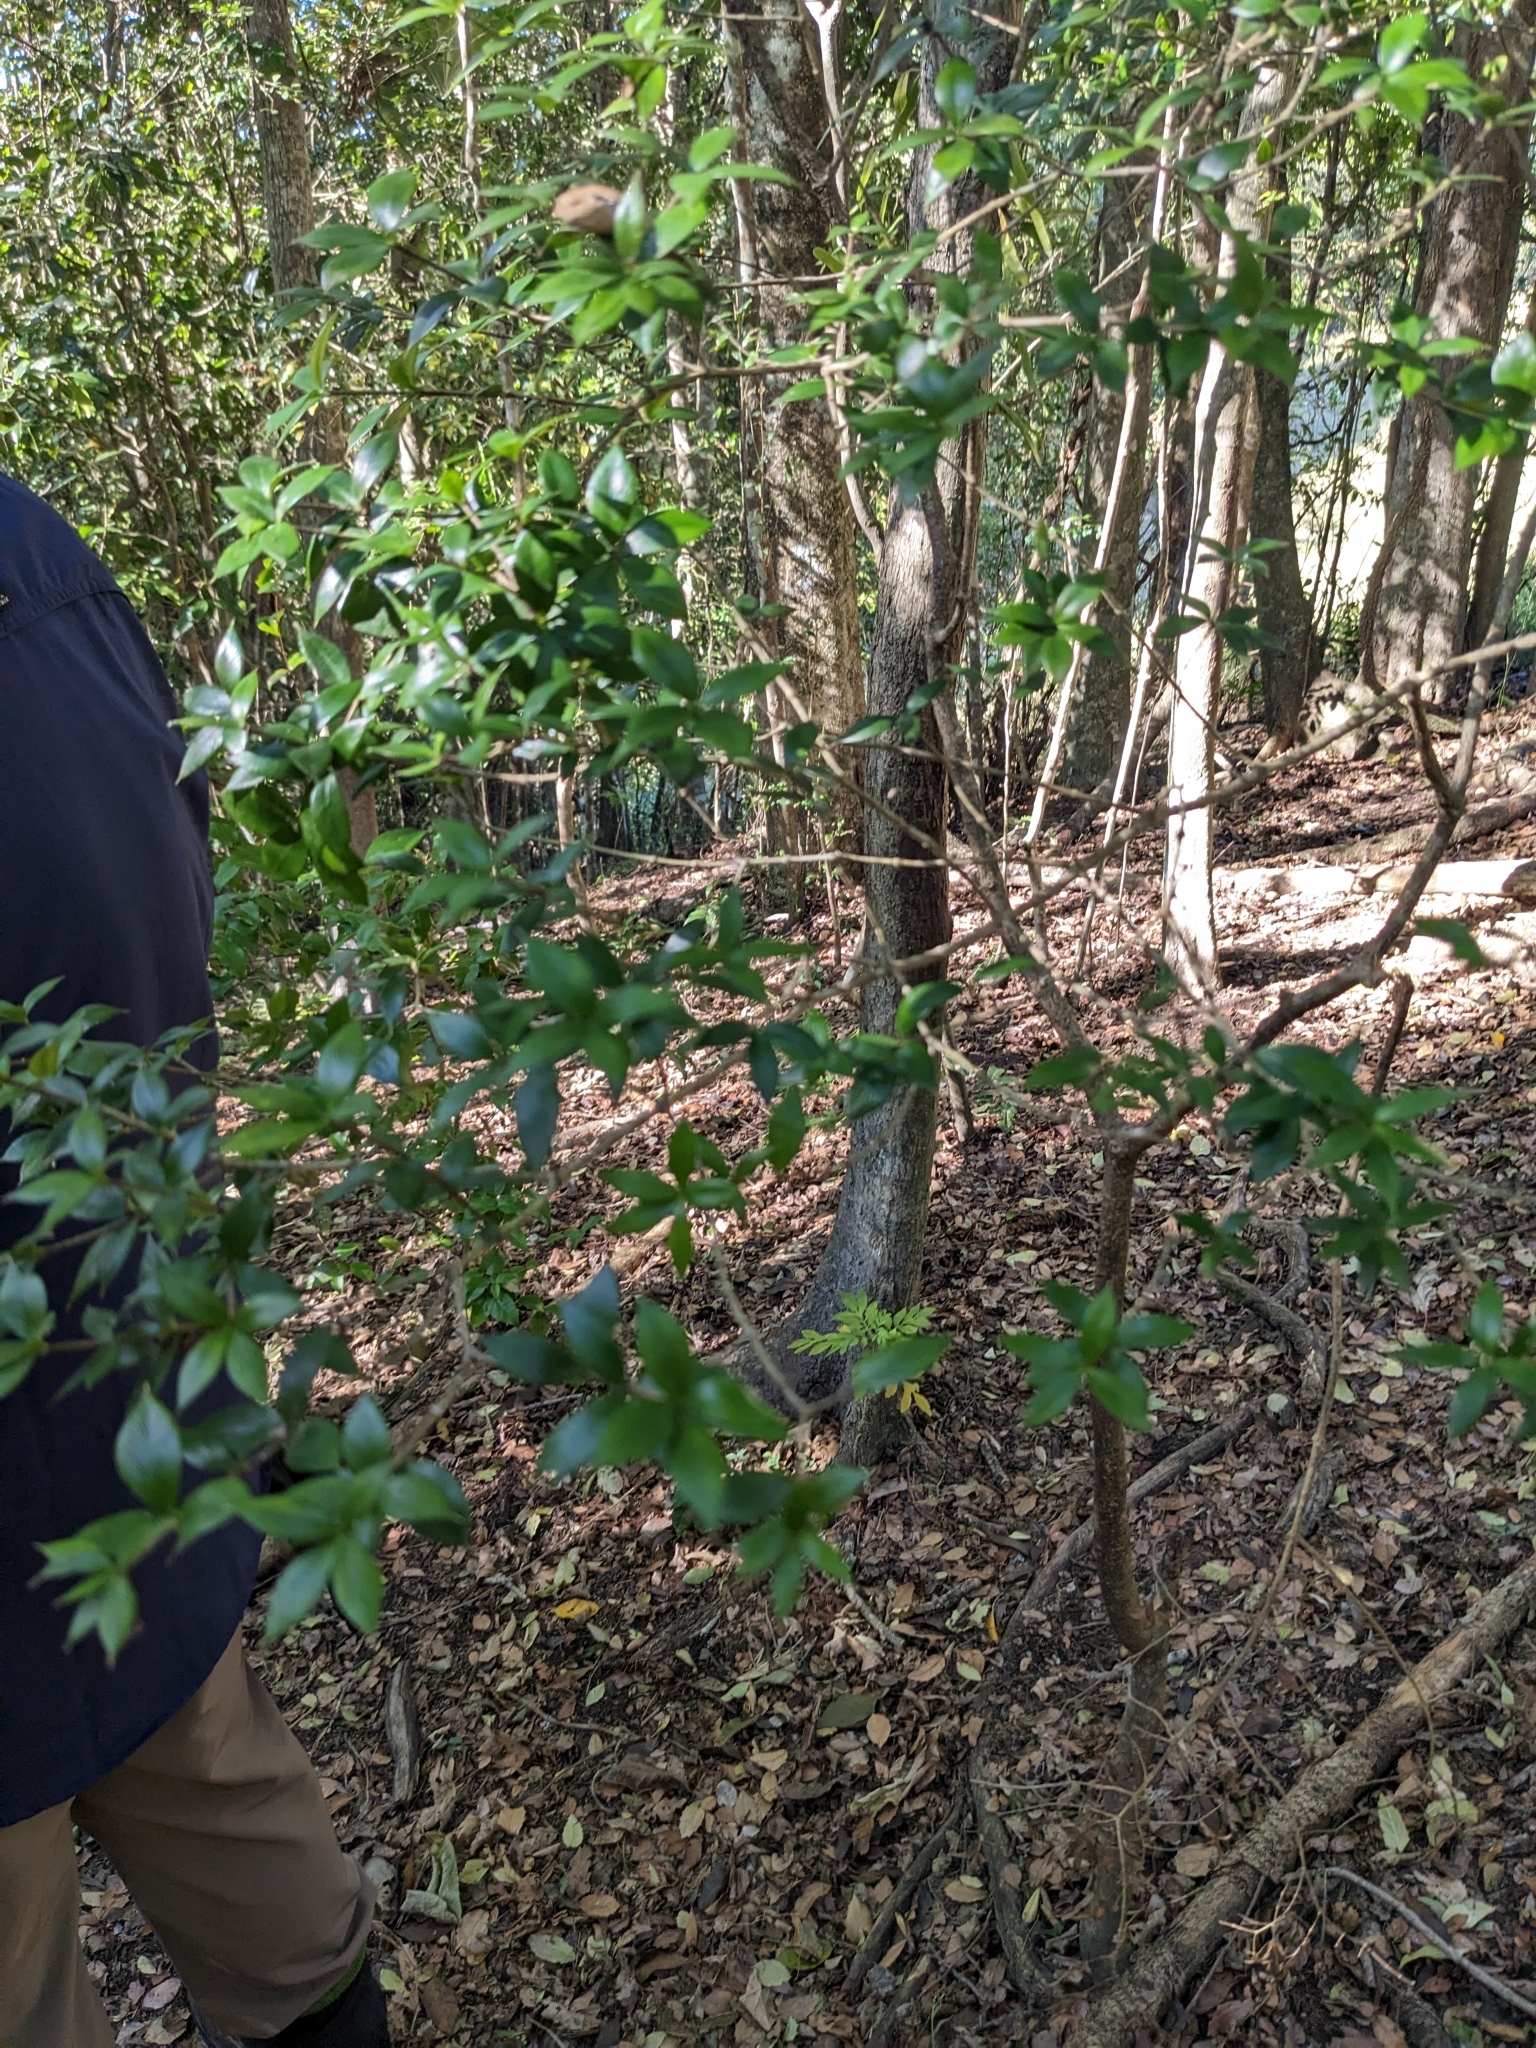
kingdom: Plantae
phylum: Tracheophyta
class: Magnoliopsida
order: Gentianales
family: Apocynaceae
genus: Alyxia
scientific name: Alyxia ruscifolia
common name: Chainfruit
